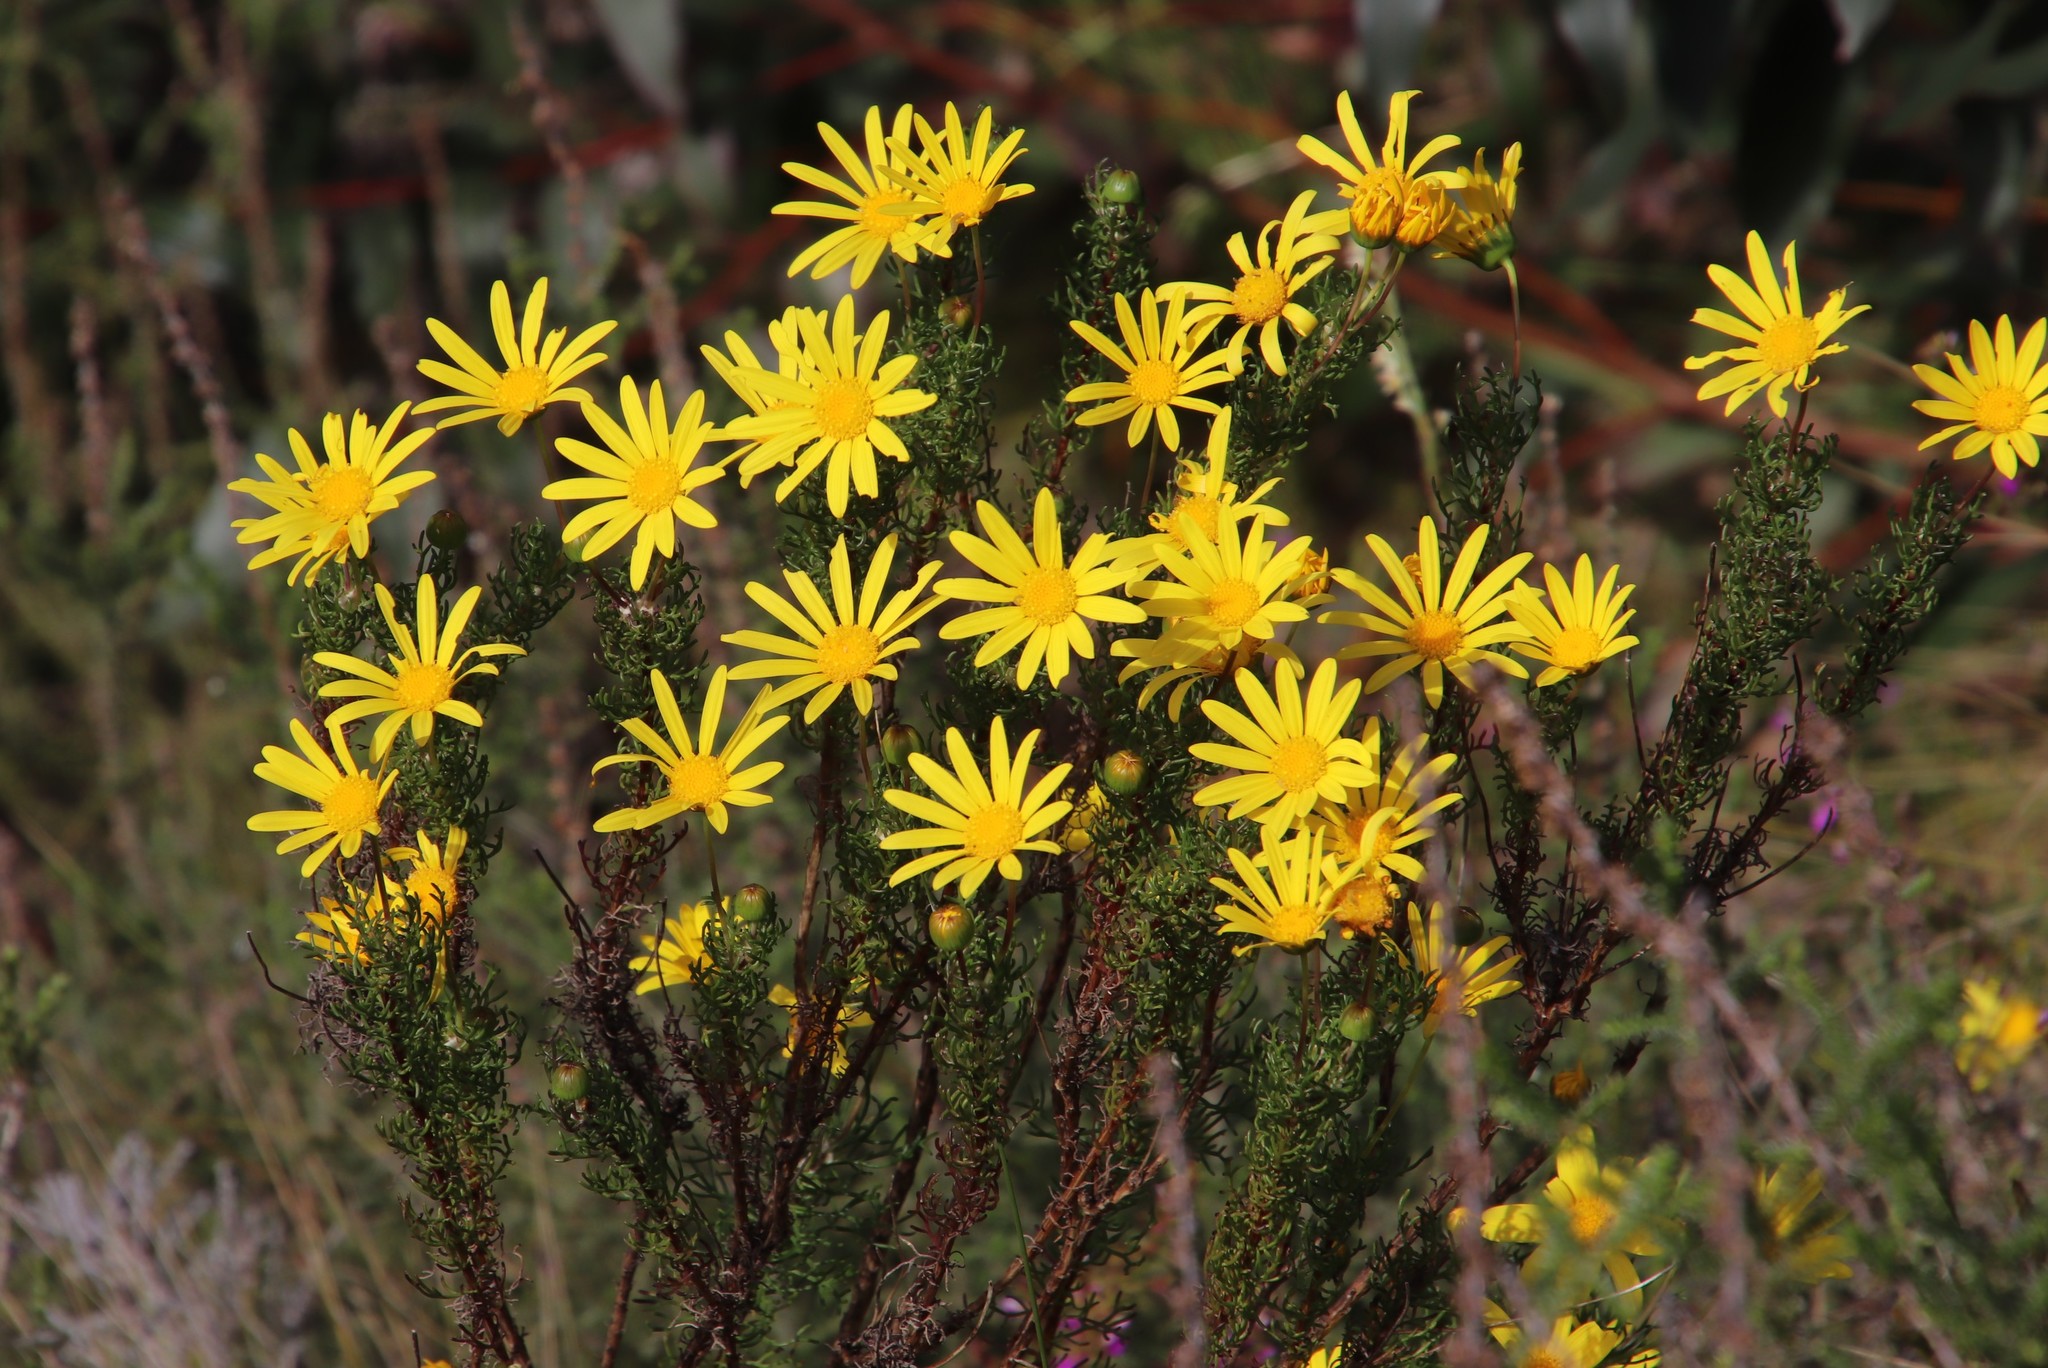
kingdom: Plantae
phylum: Tracheophyta
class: Magnoliopsida
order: Asterales
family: Asteraceae
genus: Euryops
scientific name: Euryops abrotanifolius
